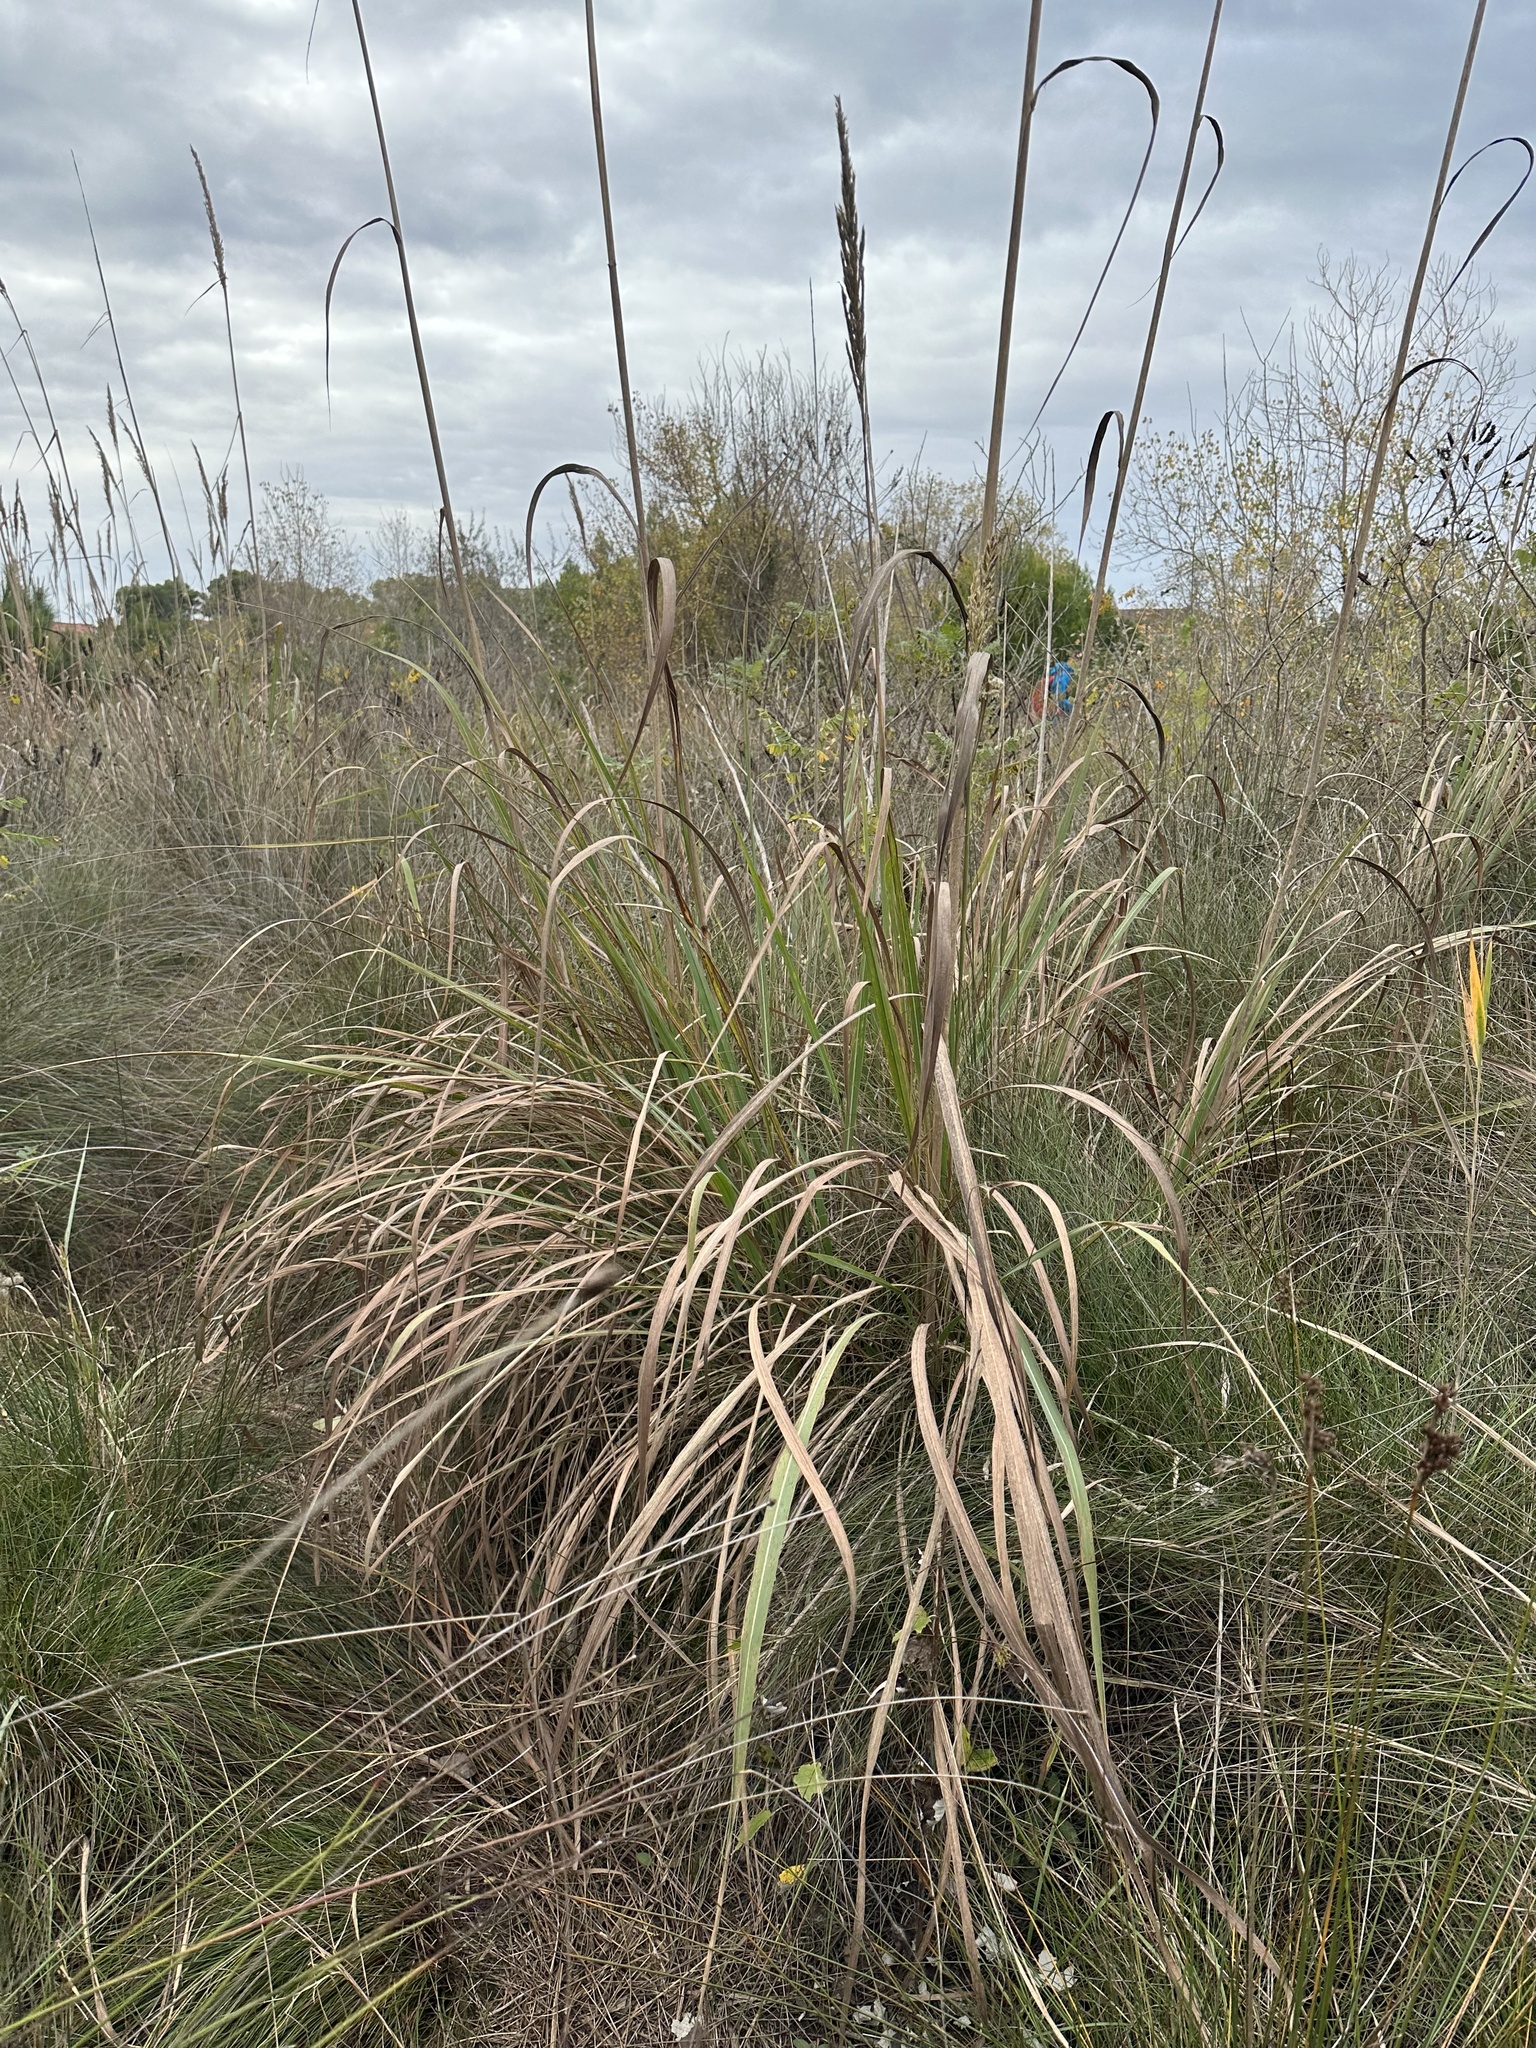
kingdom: Plantae
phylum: Tracheophyta
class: Liliopsida
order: Poales
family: Poaceae
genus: Tripidium
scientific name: Tripidium ravennae
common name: Ravenna grass
